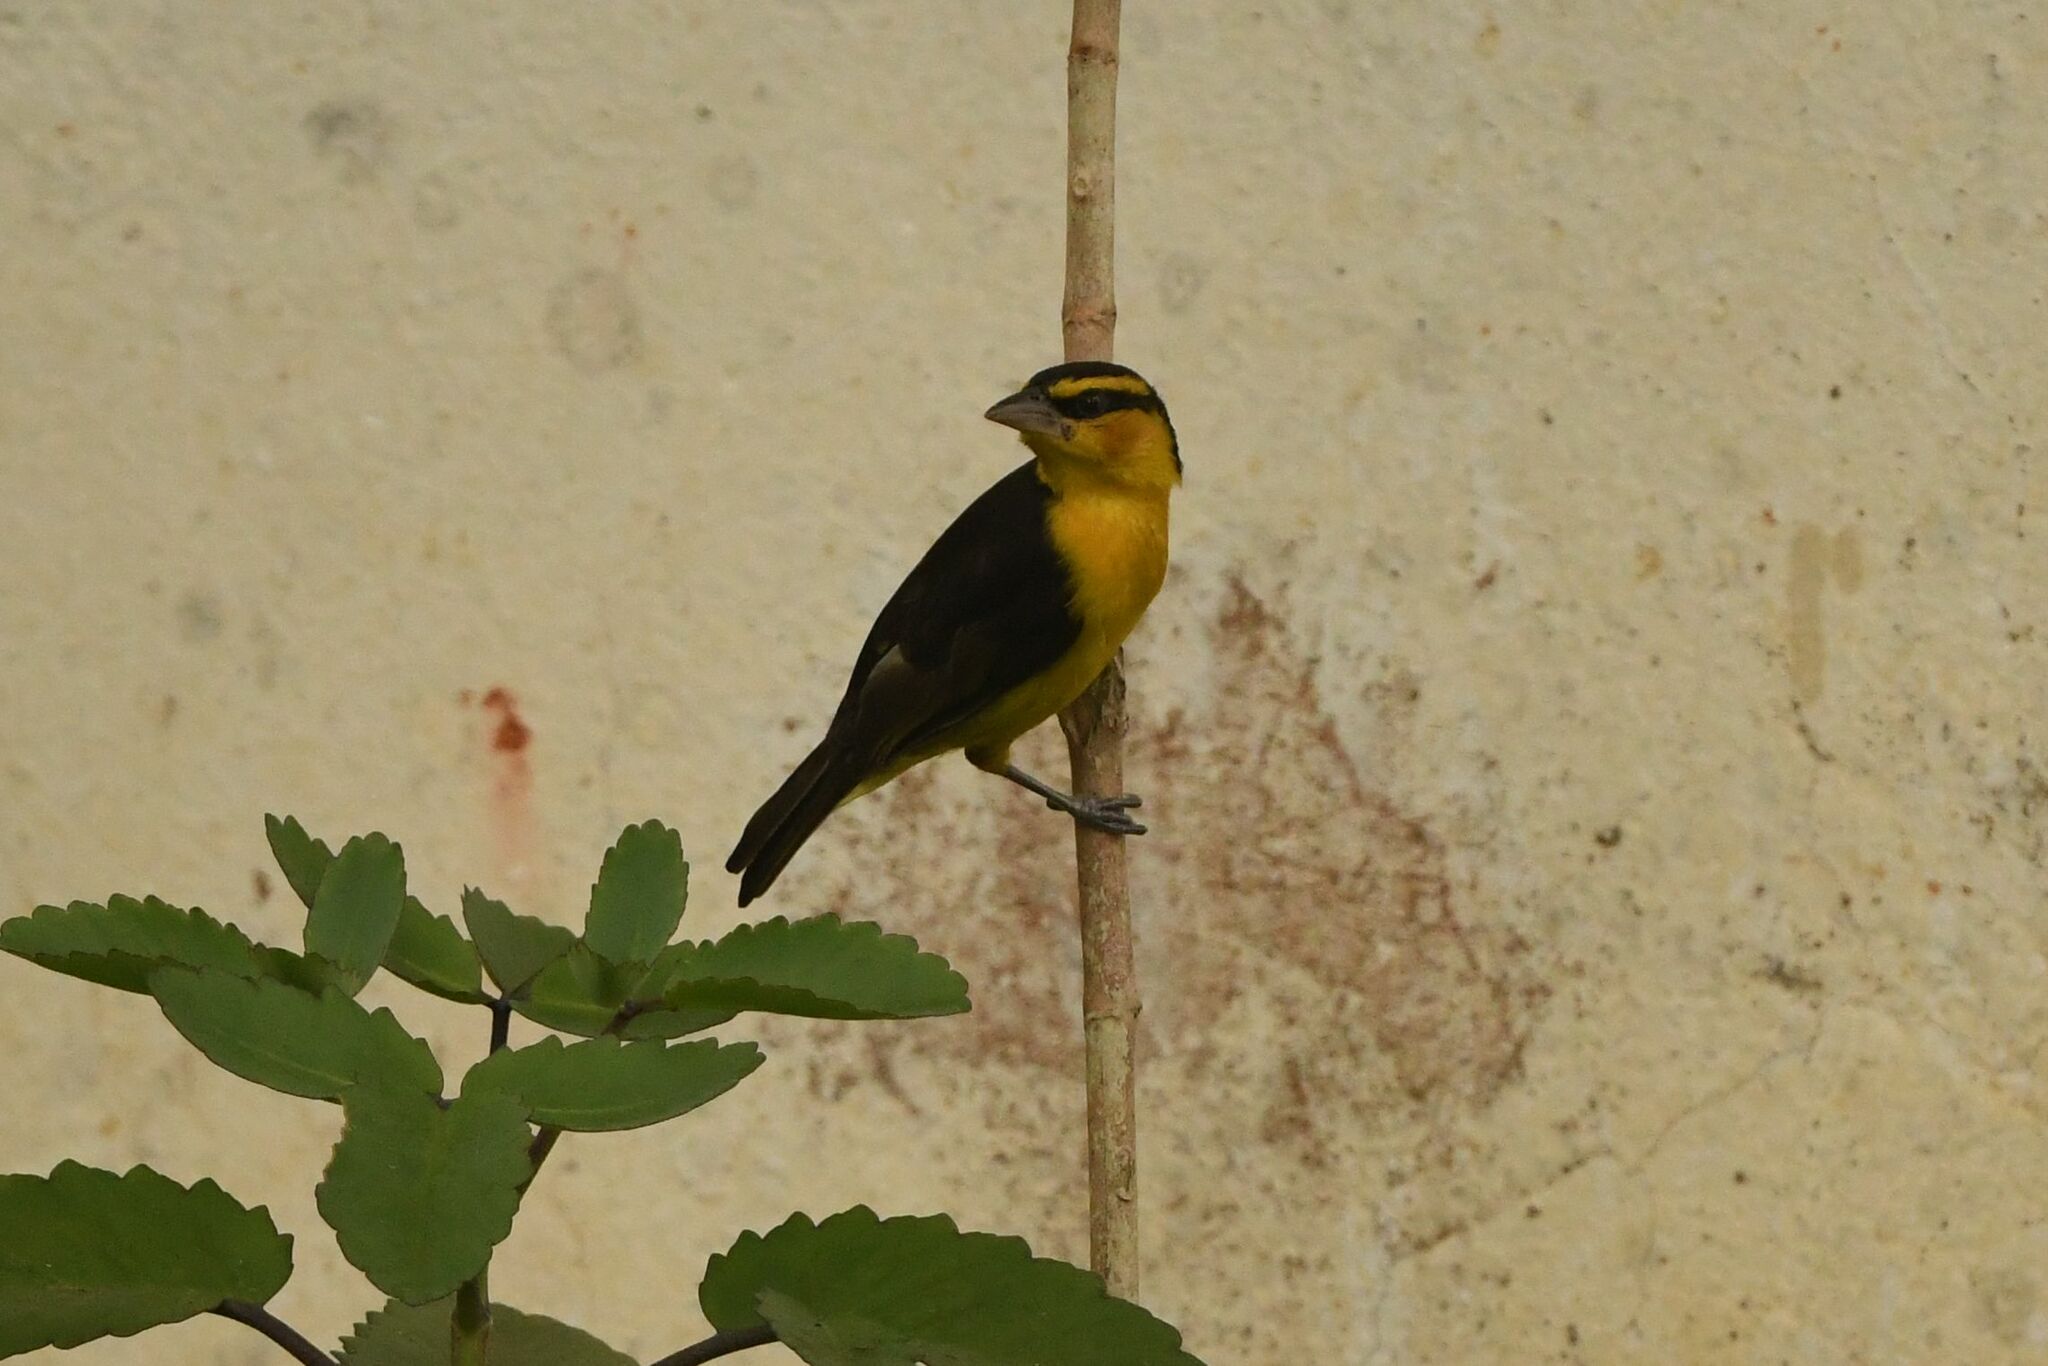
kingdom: Animalia
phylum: Chordata
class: Aves
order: Passeriformes
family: Ploceidae
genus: Ploceus
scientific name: Ploceus nigricollis
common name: Black-necked weaver
